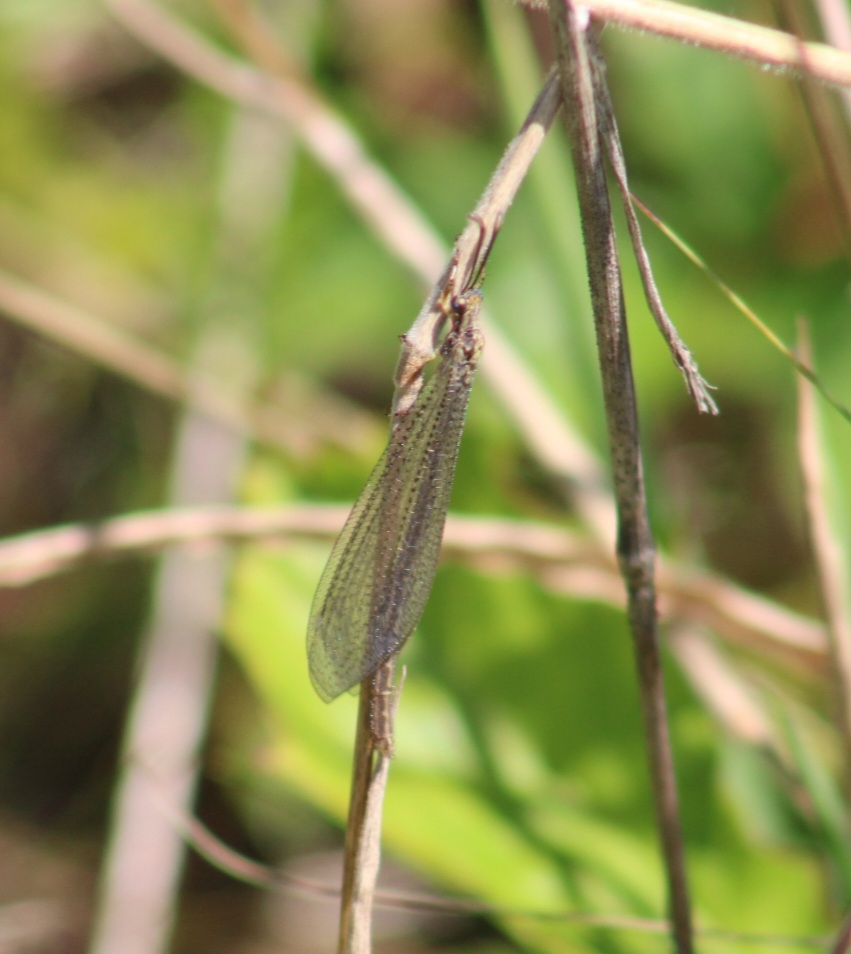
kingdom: Animalia
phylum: Arthropoda
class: Insecta
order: Neuroptera
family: Myrmeleontidae
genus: Brachynemurus
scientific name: Brachynemurus abdominalis
